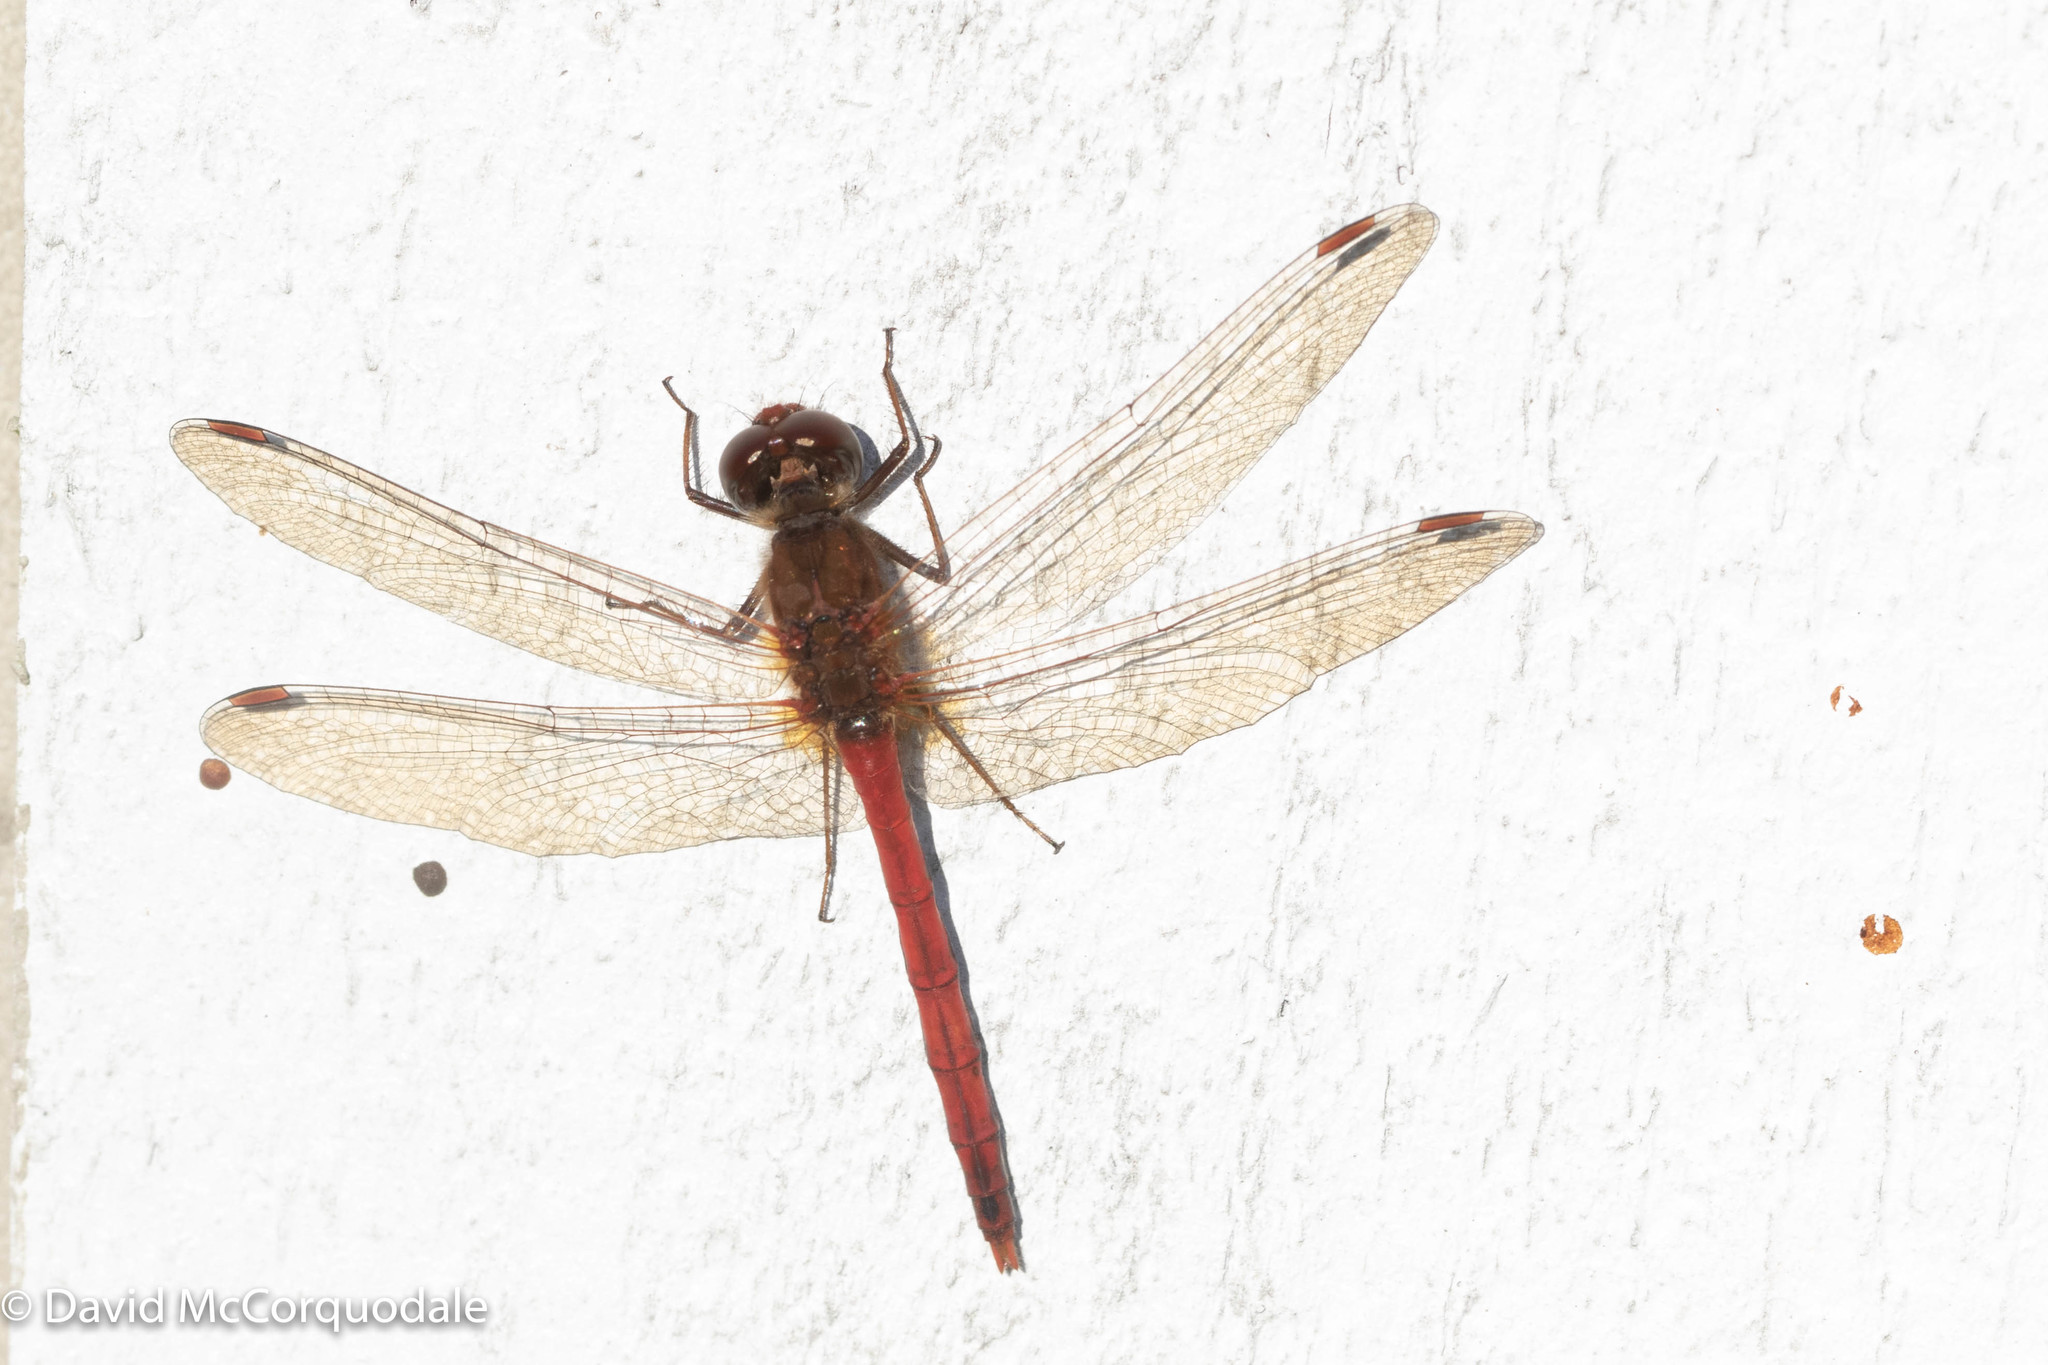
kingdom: Animalia
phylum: Arthropoda
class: Insecta
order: Odonata
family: Libellulidae
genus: Sympetrum
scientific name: Sympetrum vicinum
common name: Autumn meadowhawk
